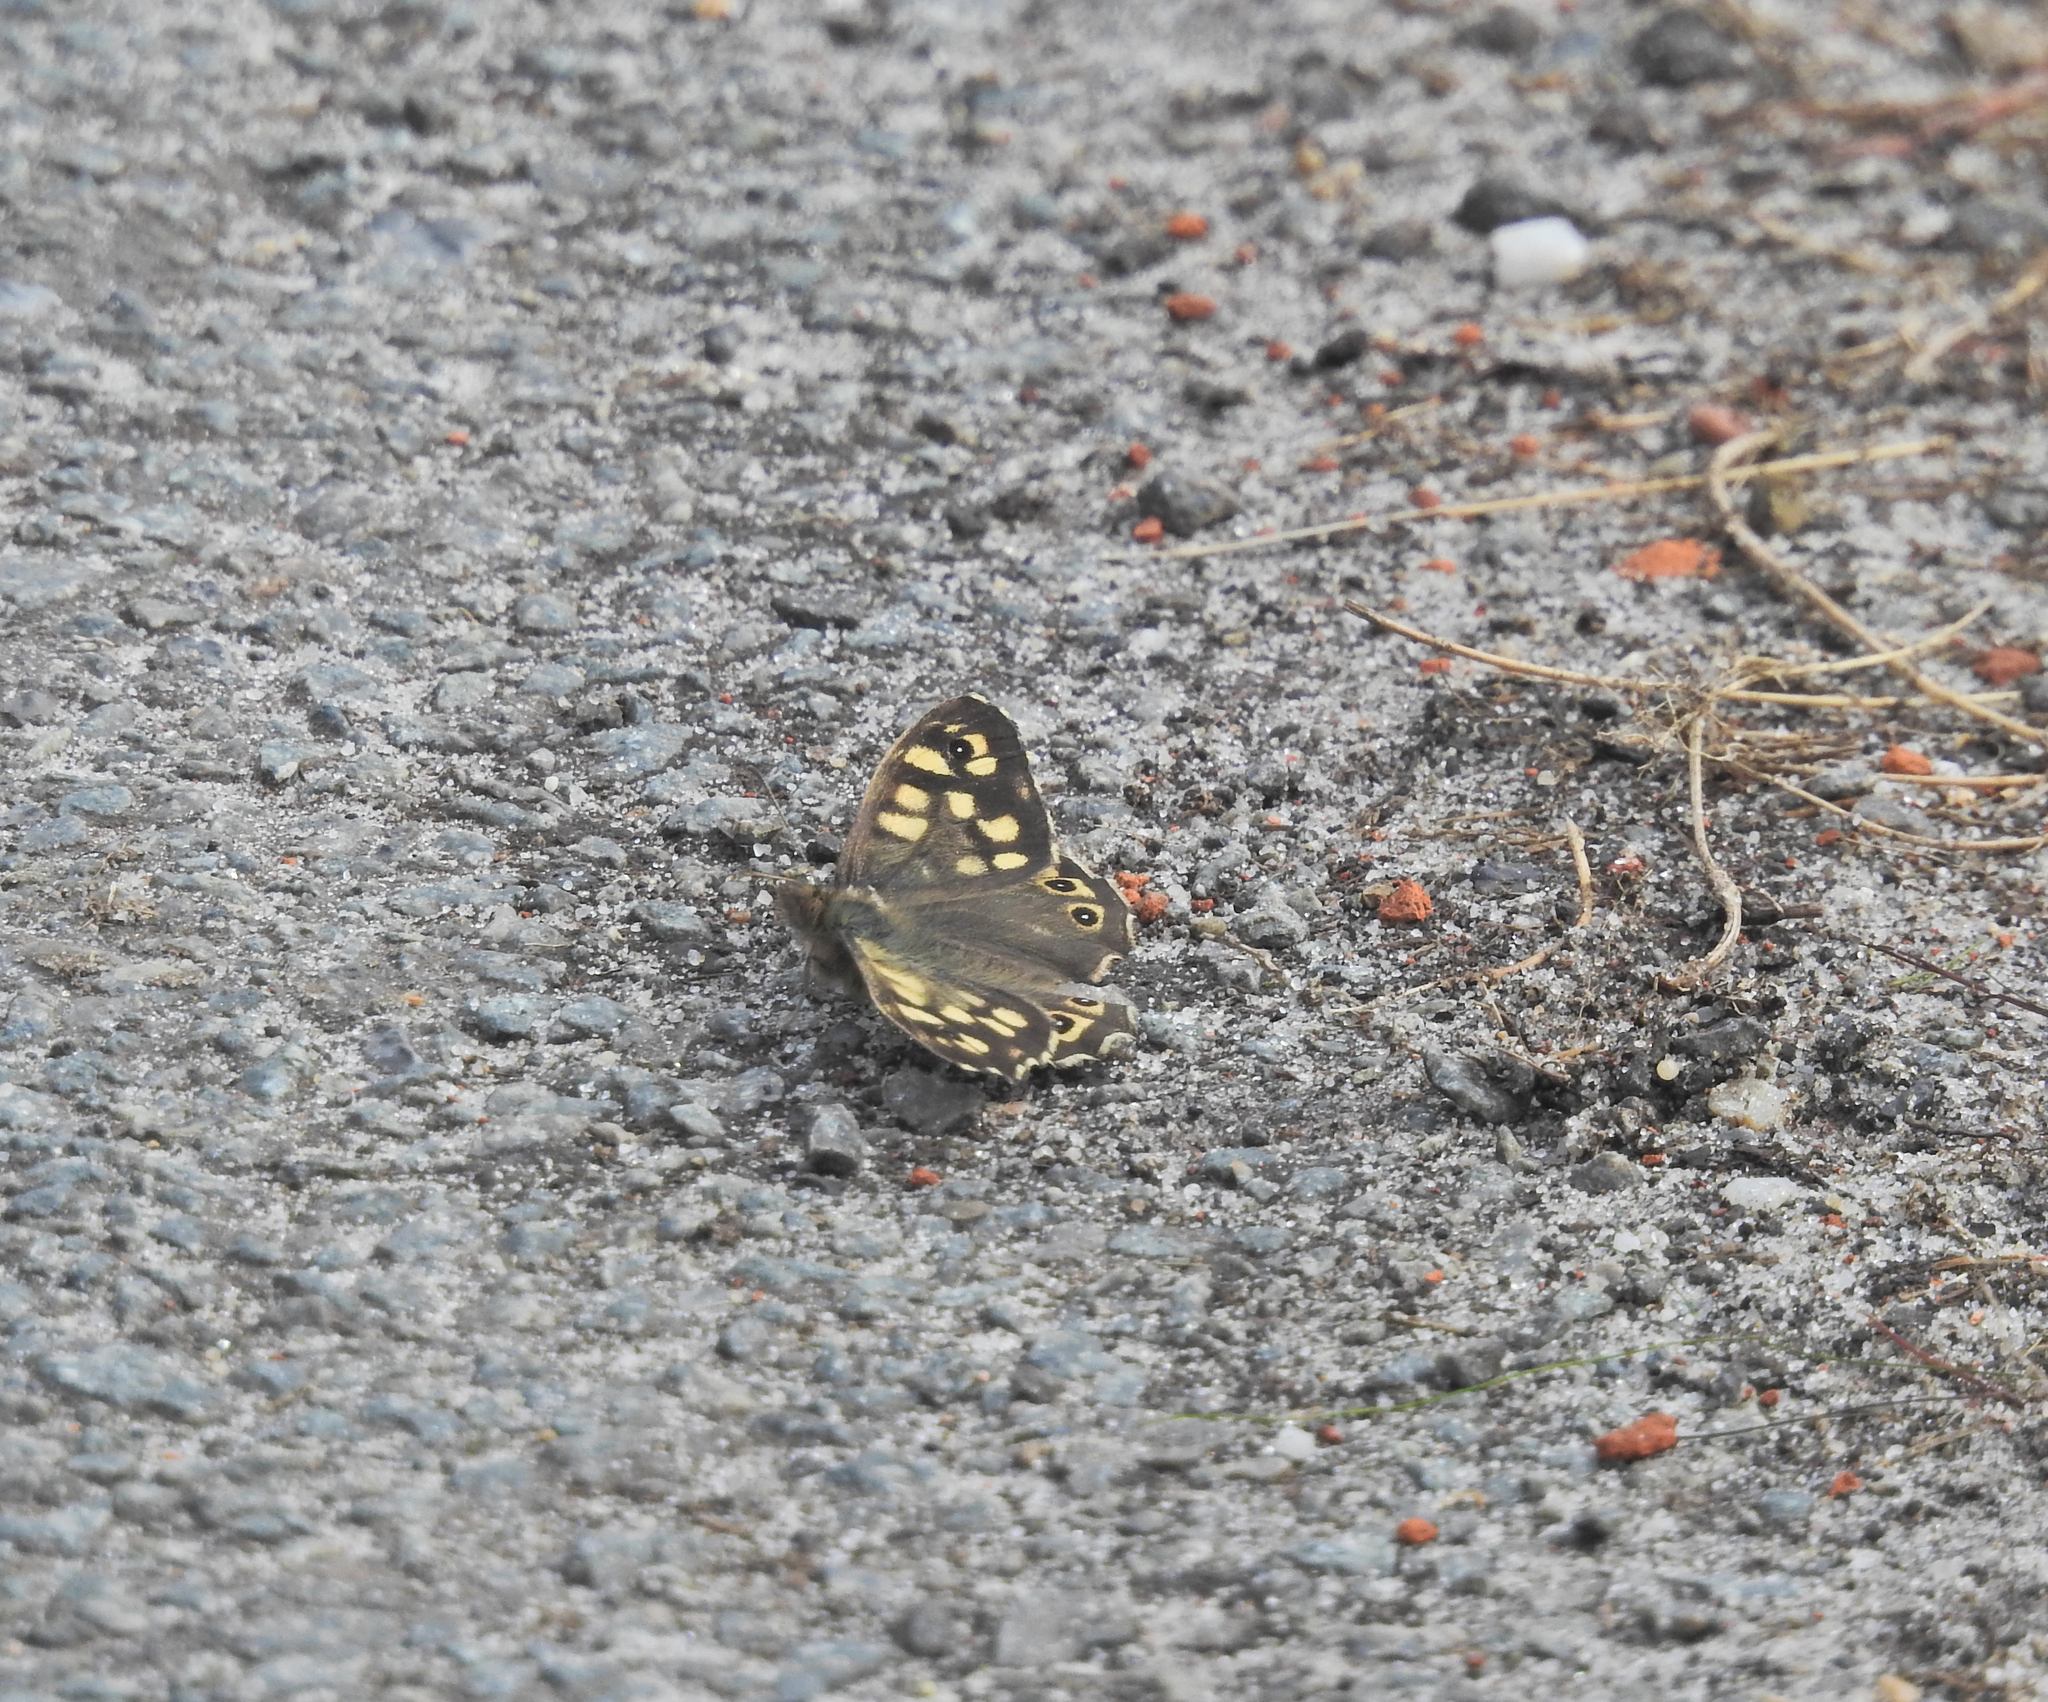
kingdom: Animalia
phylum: Arthropoda
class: Insecta
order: Lepidoptera
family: Nymphalidae
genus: Pararge
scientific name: Pararge aegeria
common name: Speckled wood
